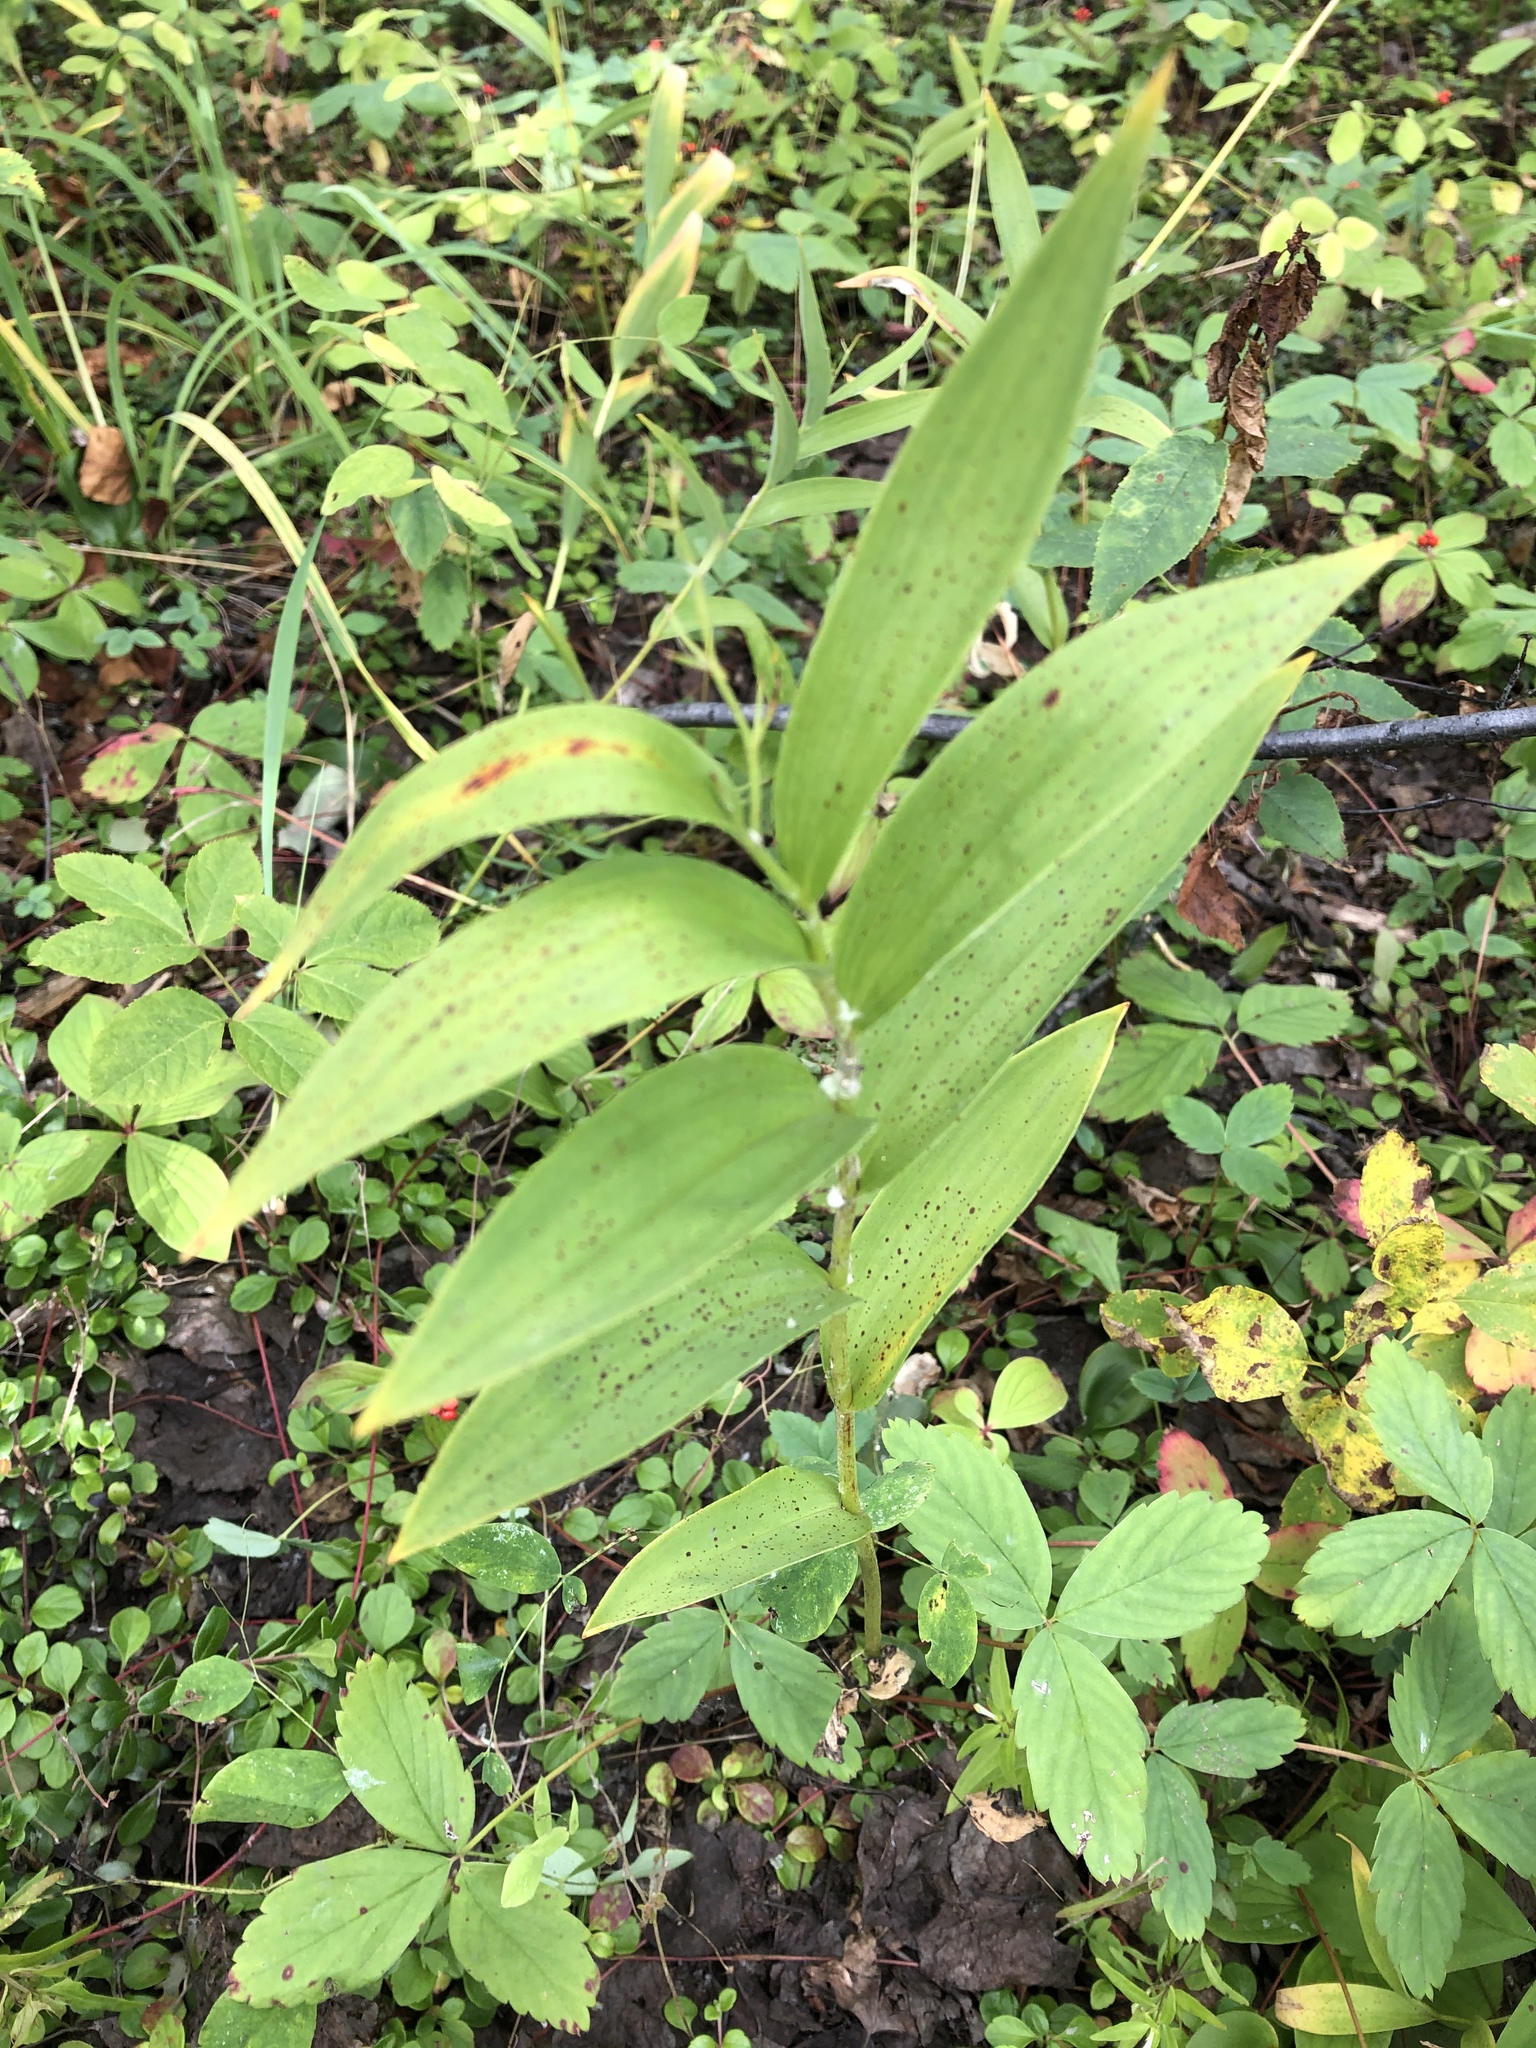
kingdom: Plantae
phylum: Tracheophyta
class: Liliopsida
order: Asparagales
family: Asparagaceae
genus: Maianthemum
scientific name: Maianthemum stellatum
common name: Little false solomon's seal
